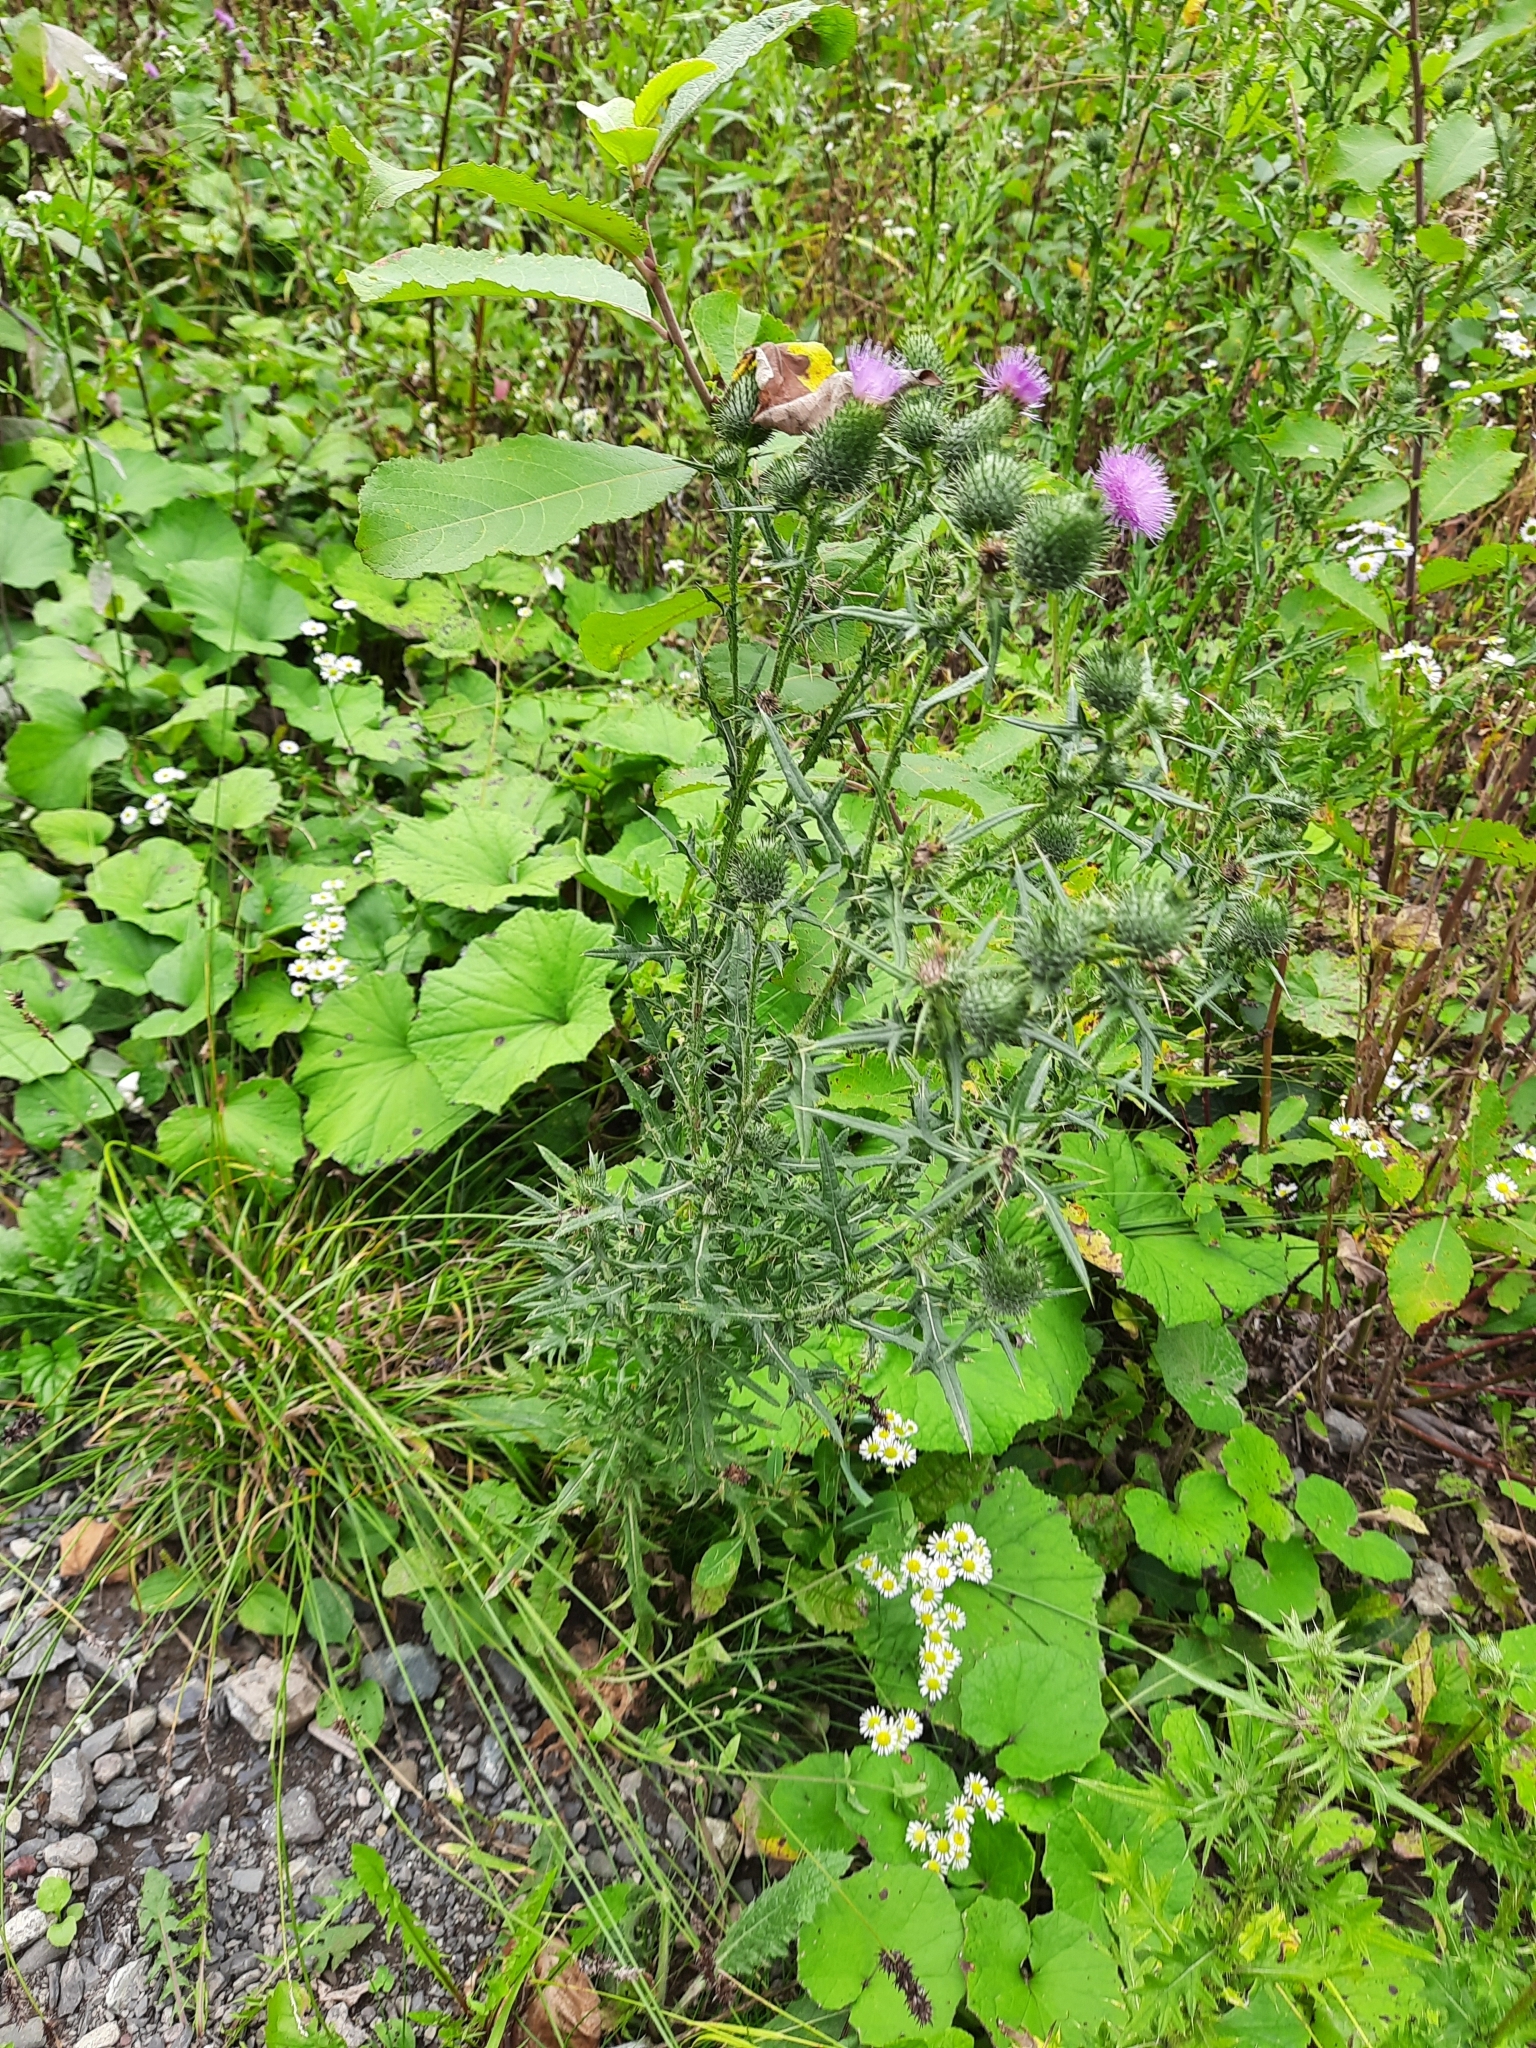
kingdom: Plantae
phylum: Tracheophyta
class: Magnoliopsida
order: Asterales
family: Asteraceae
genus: Cirsium
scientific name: Cirsium vulgare
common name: Bull thistle
